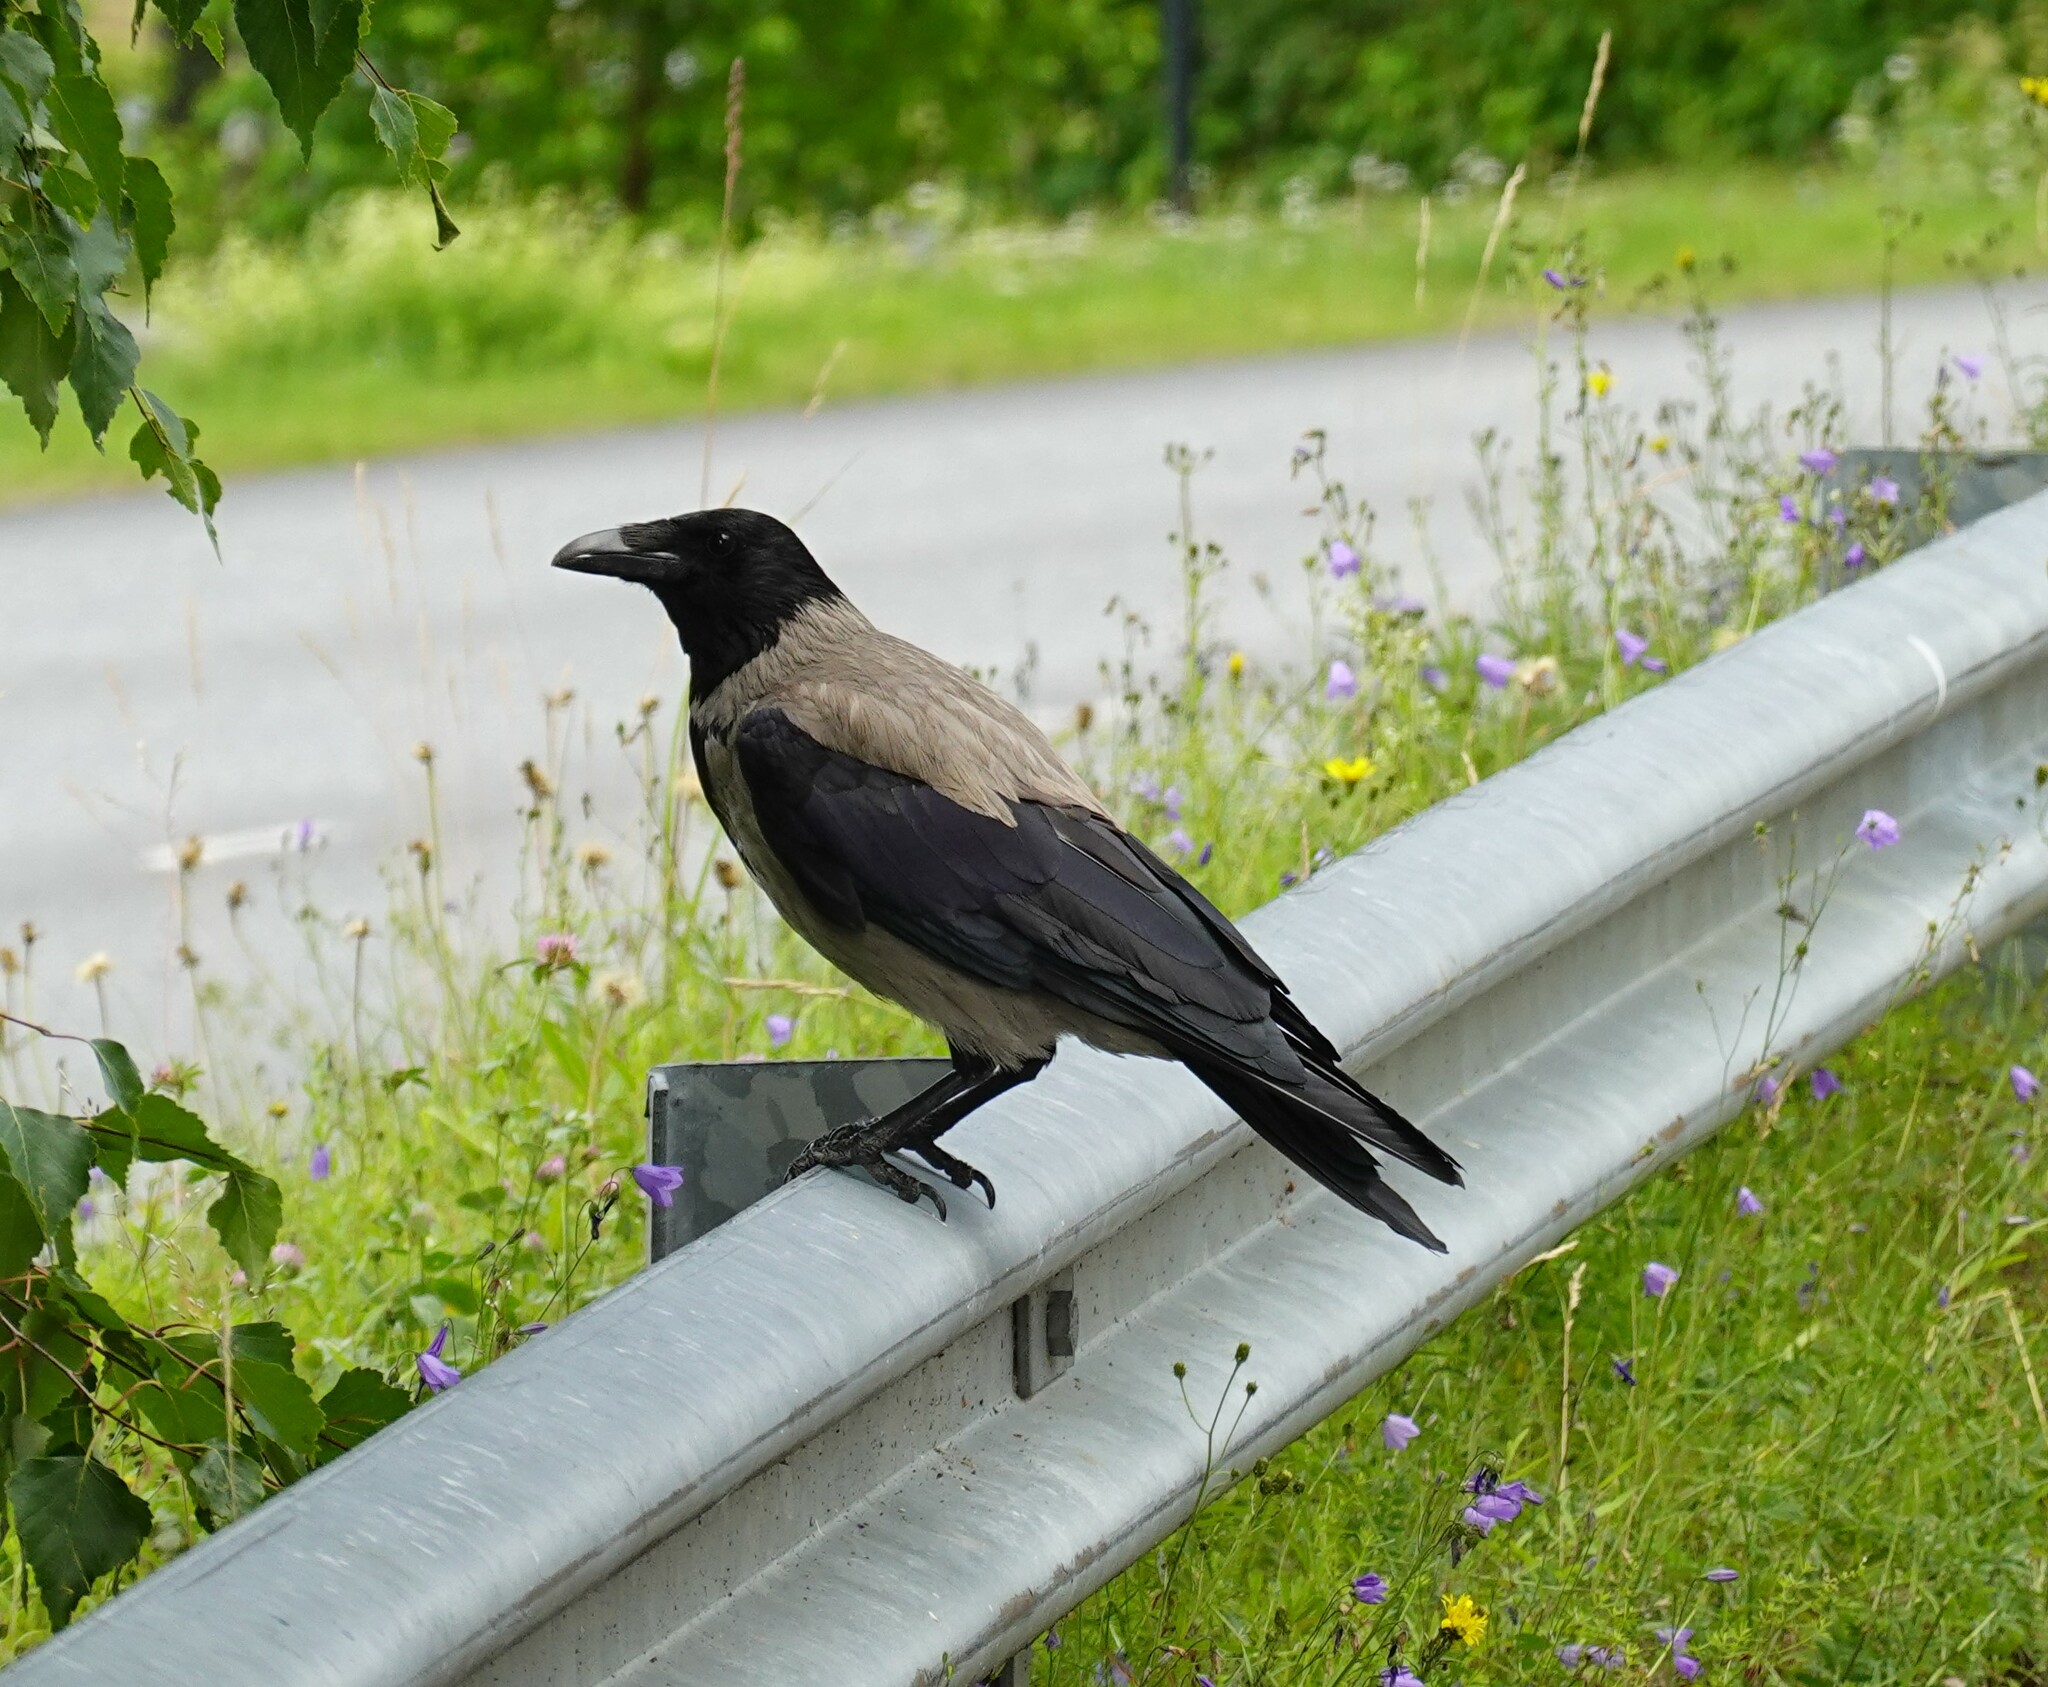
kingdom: Animalia
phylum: Chordata
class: Aves
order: Passeriformes
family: Corvidae
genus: Corvus
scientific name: Corvus cornix
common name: Hooded crow
